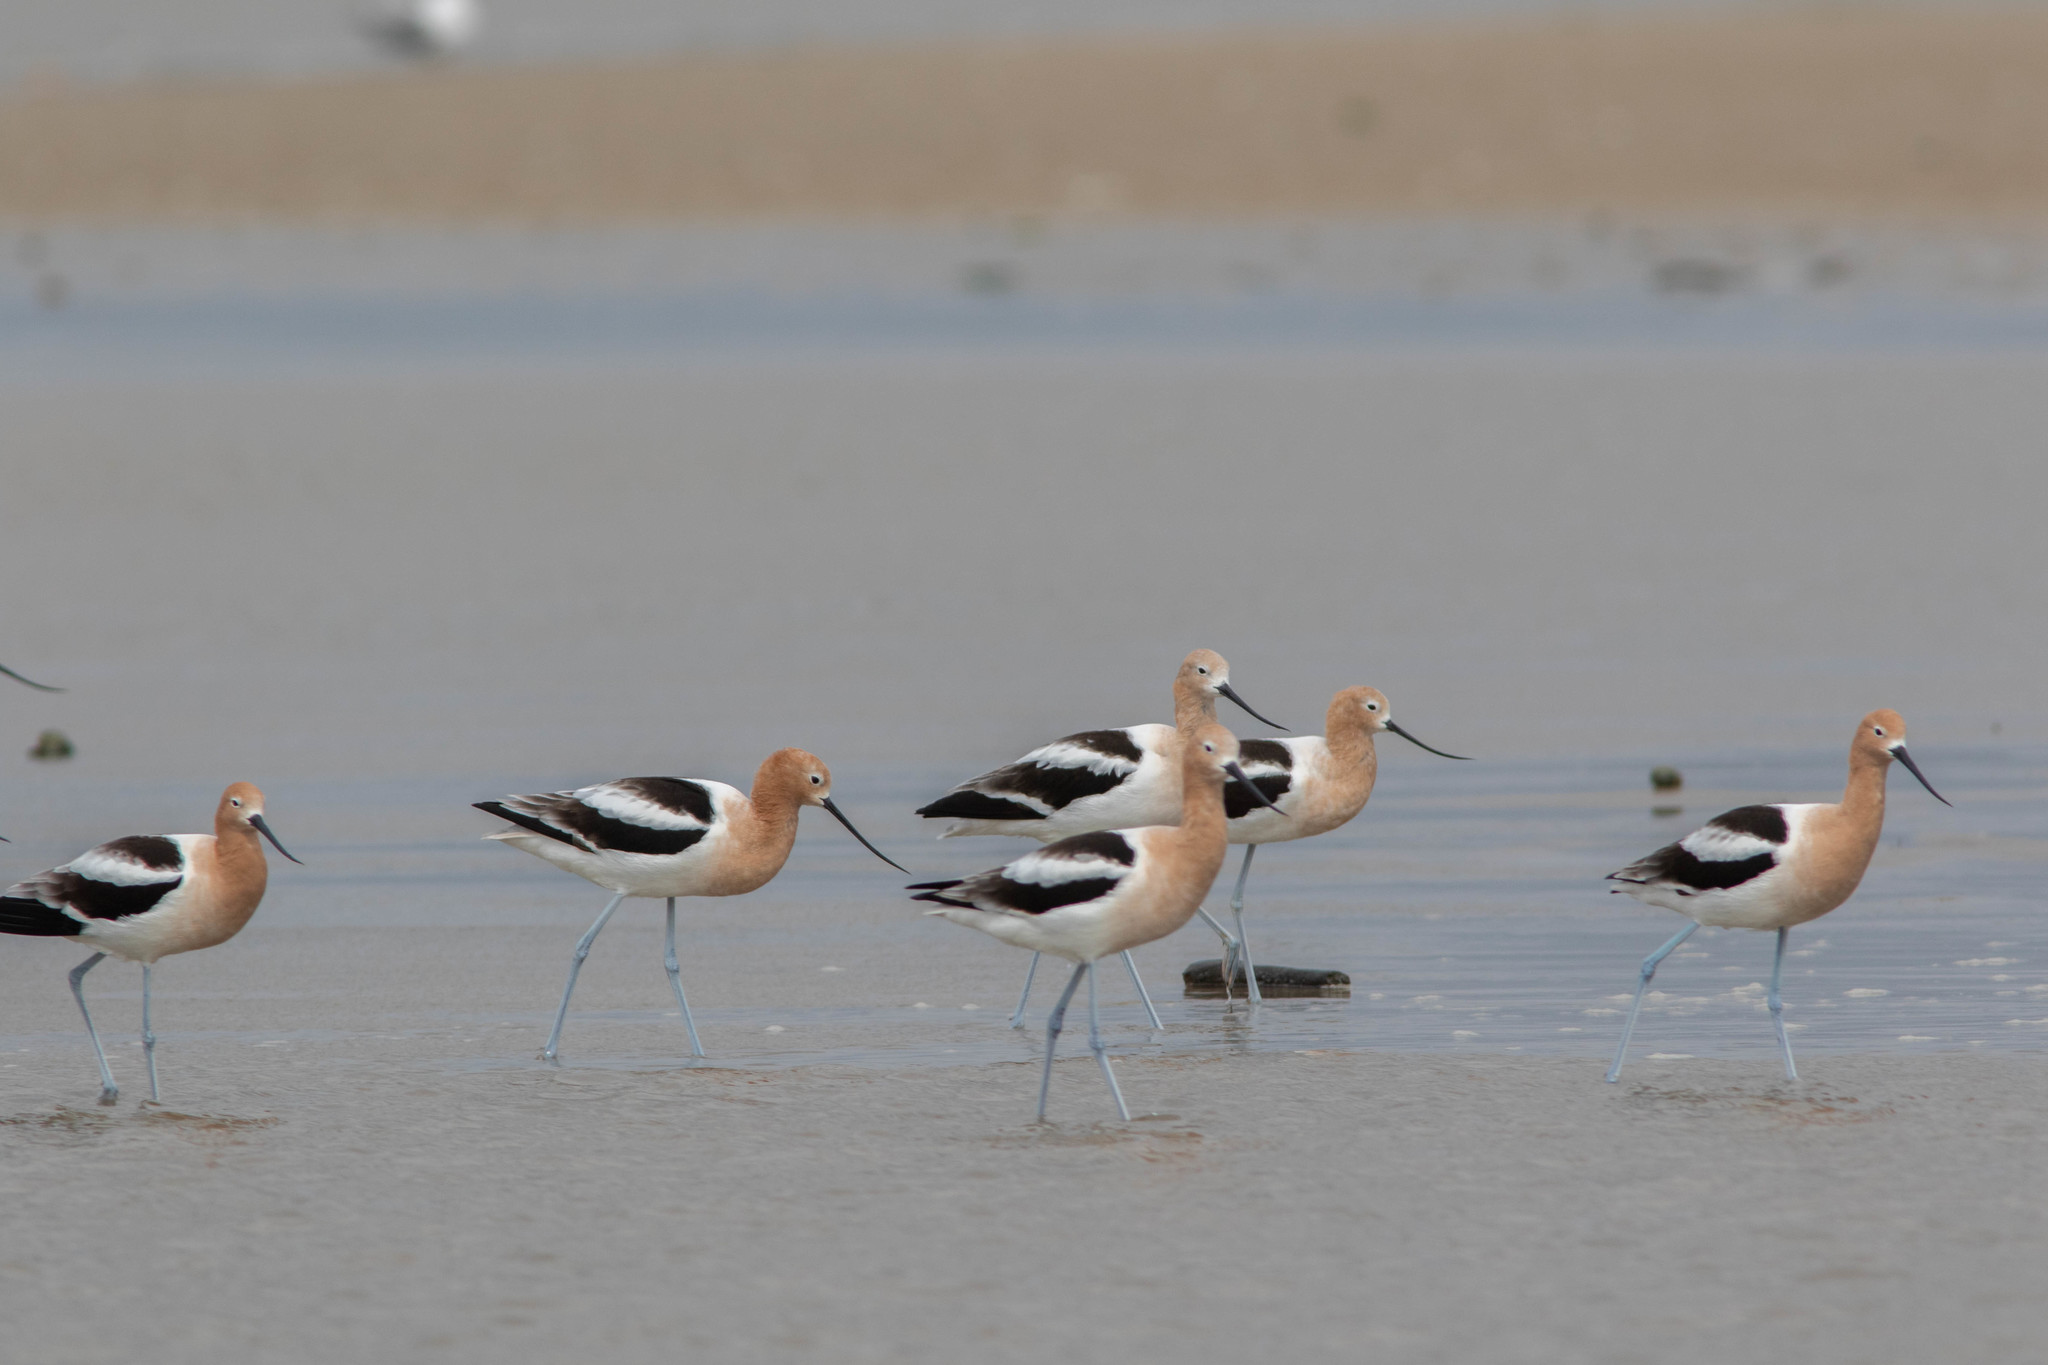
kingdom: Animalia
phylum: Chordata
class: Aves
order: Charadriiformes
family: Recurvirostridae
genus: Recurvirostra
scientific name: Recurvirostra americana
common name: American avocet
